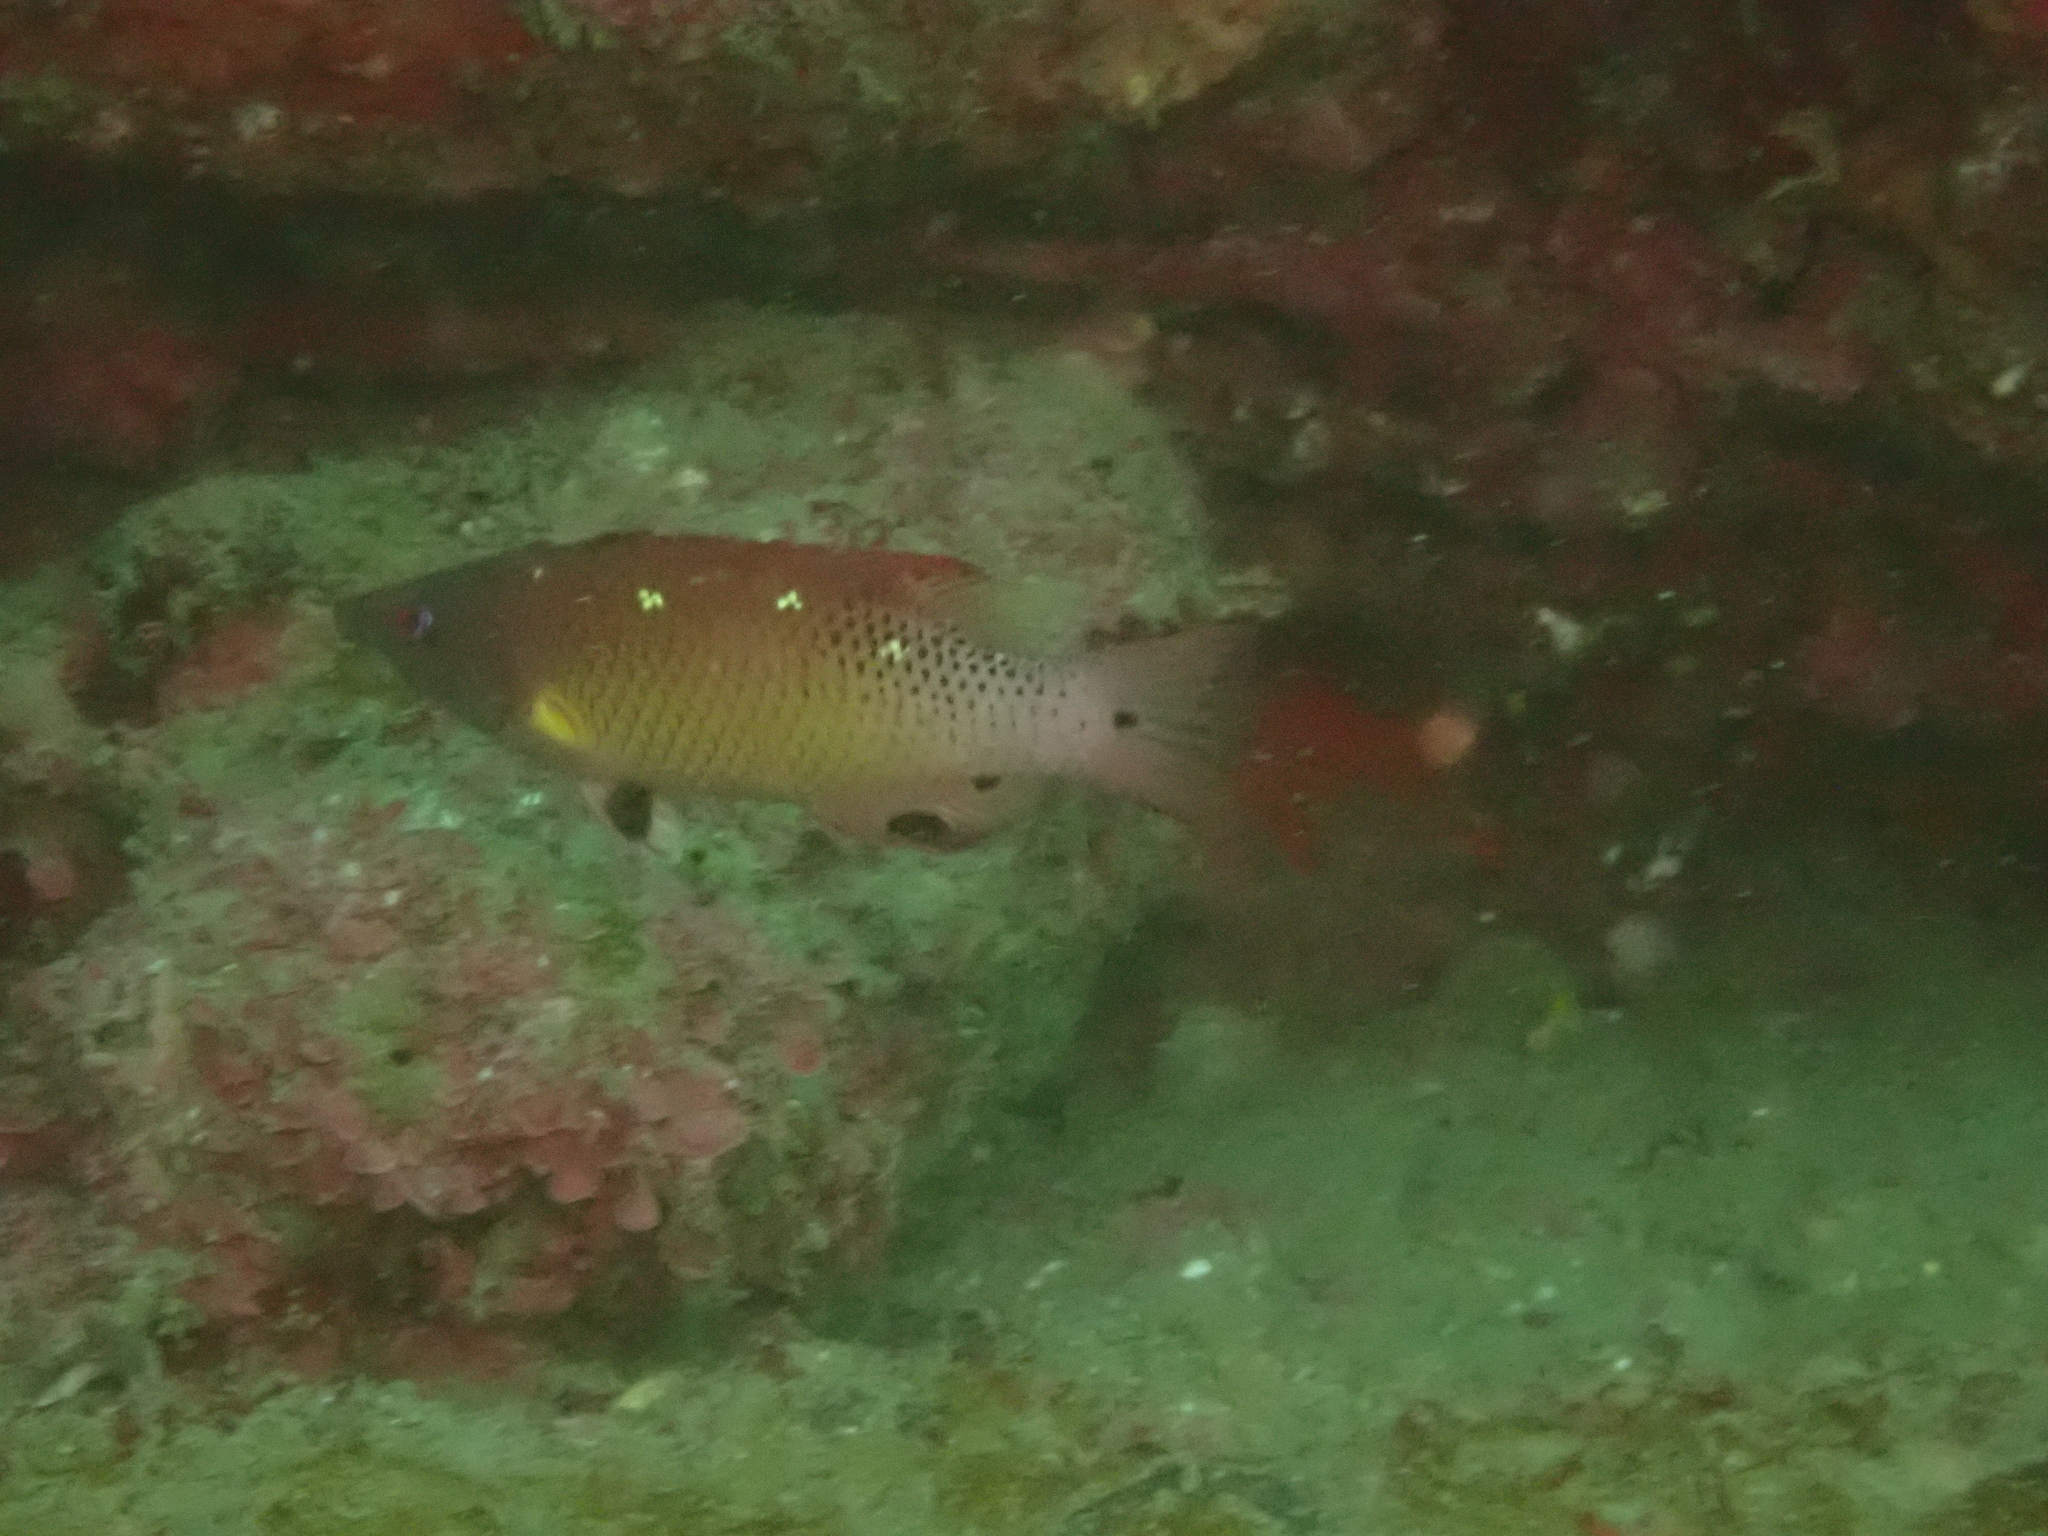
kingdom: Animalia
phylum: Chordata
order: Perciformes
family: Labridae
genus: Bodianus
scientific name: Bodianus dictynna
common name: Diana's hogfish
